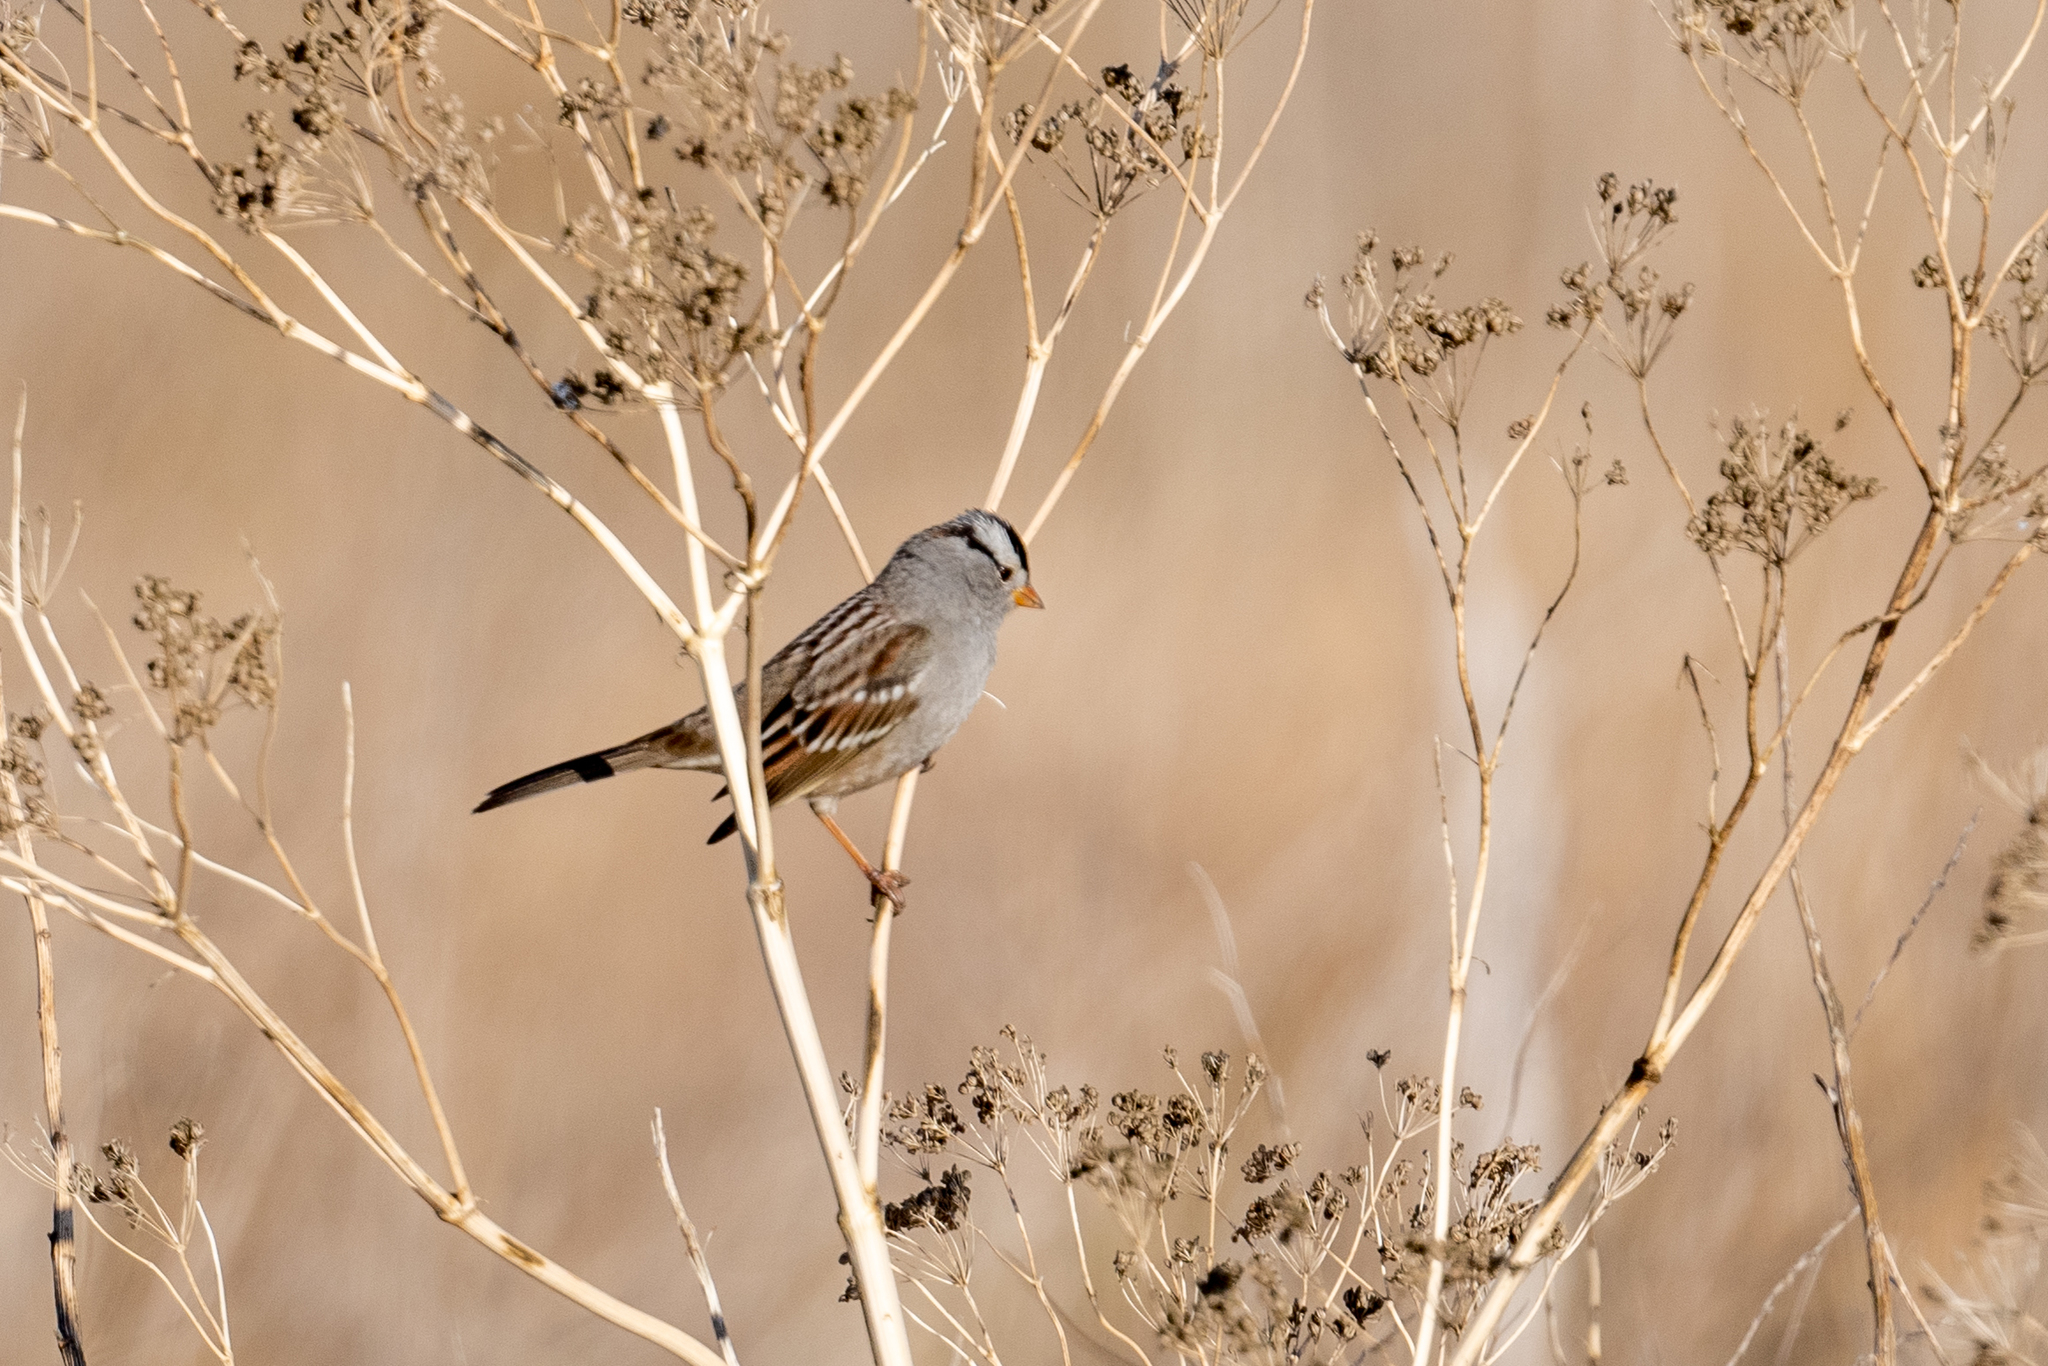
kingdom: Animalia
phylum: Chordata
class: Aves
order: Passeriformes
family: Passerellidae
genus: Zonotrichia
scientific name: Zonotrichia leucophrys
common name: White-crowned sparrow
